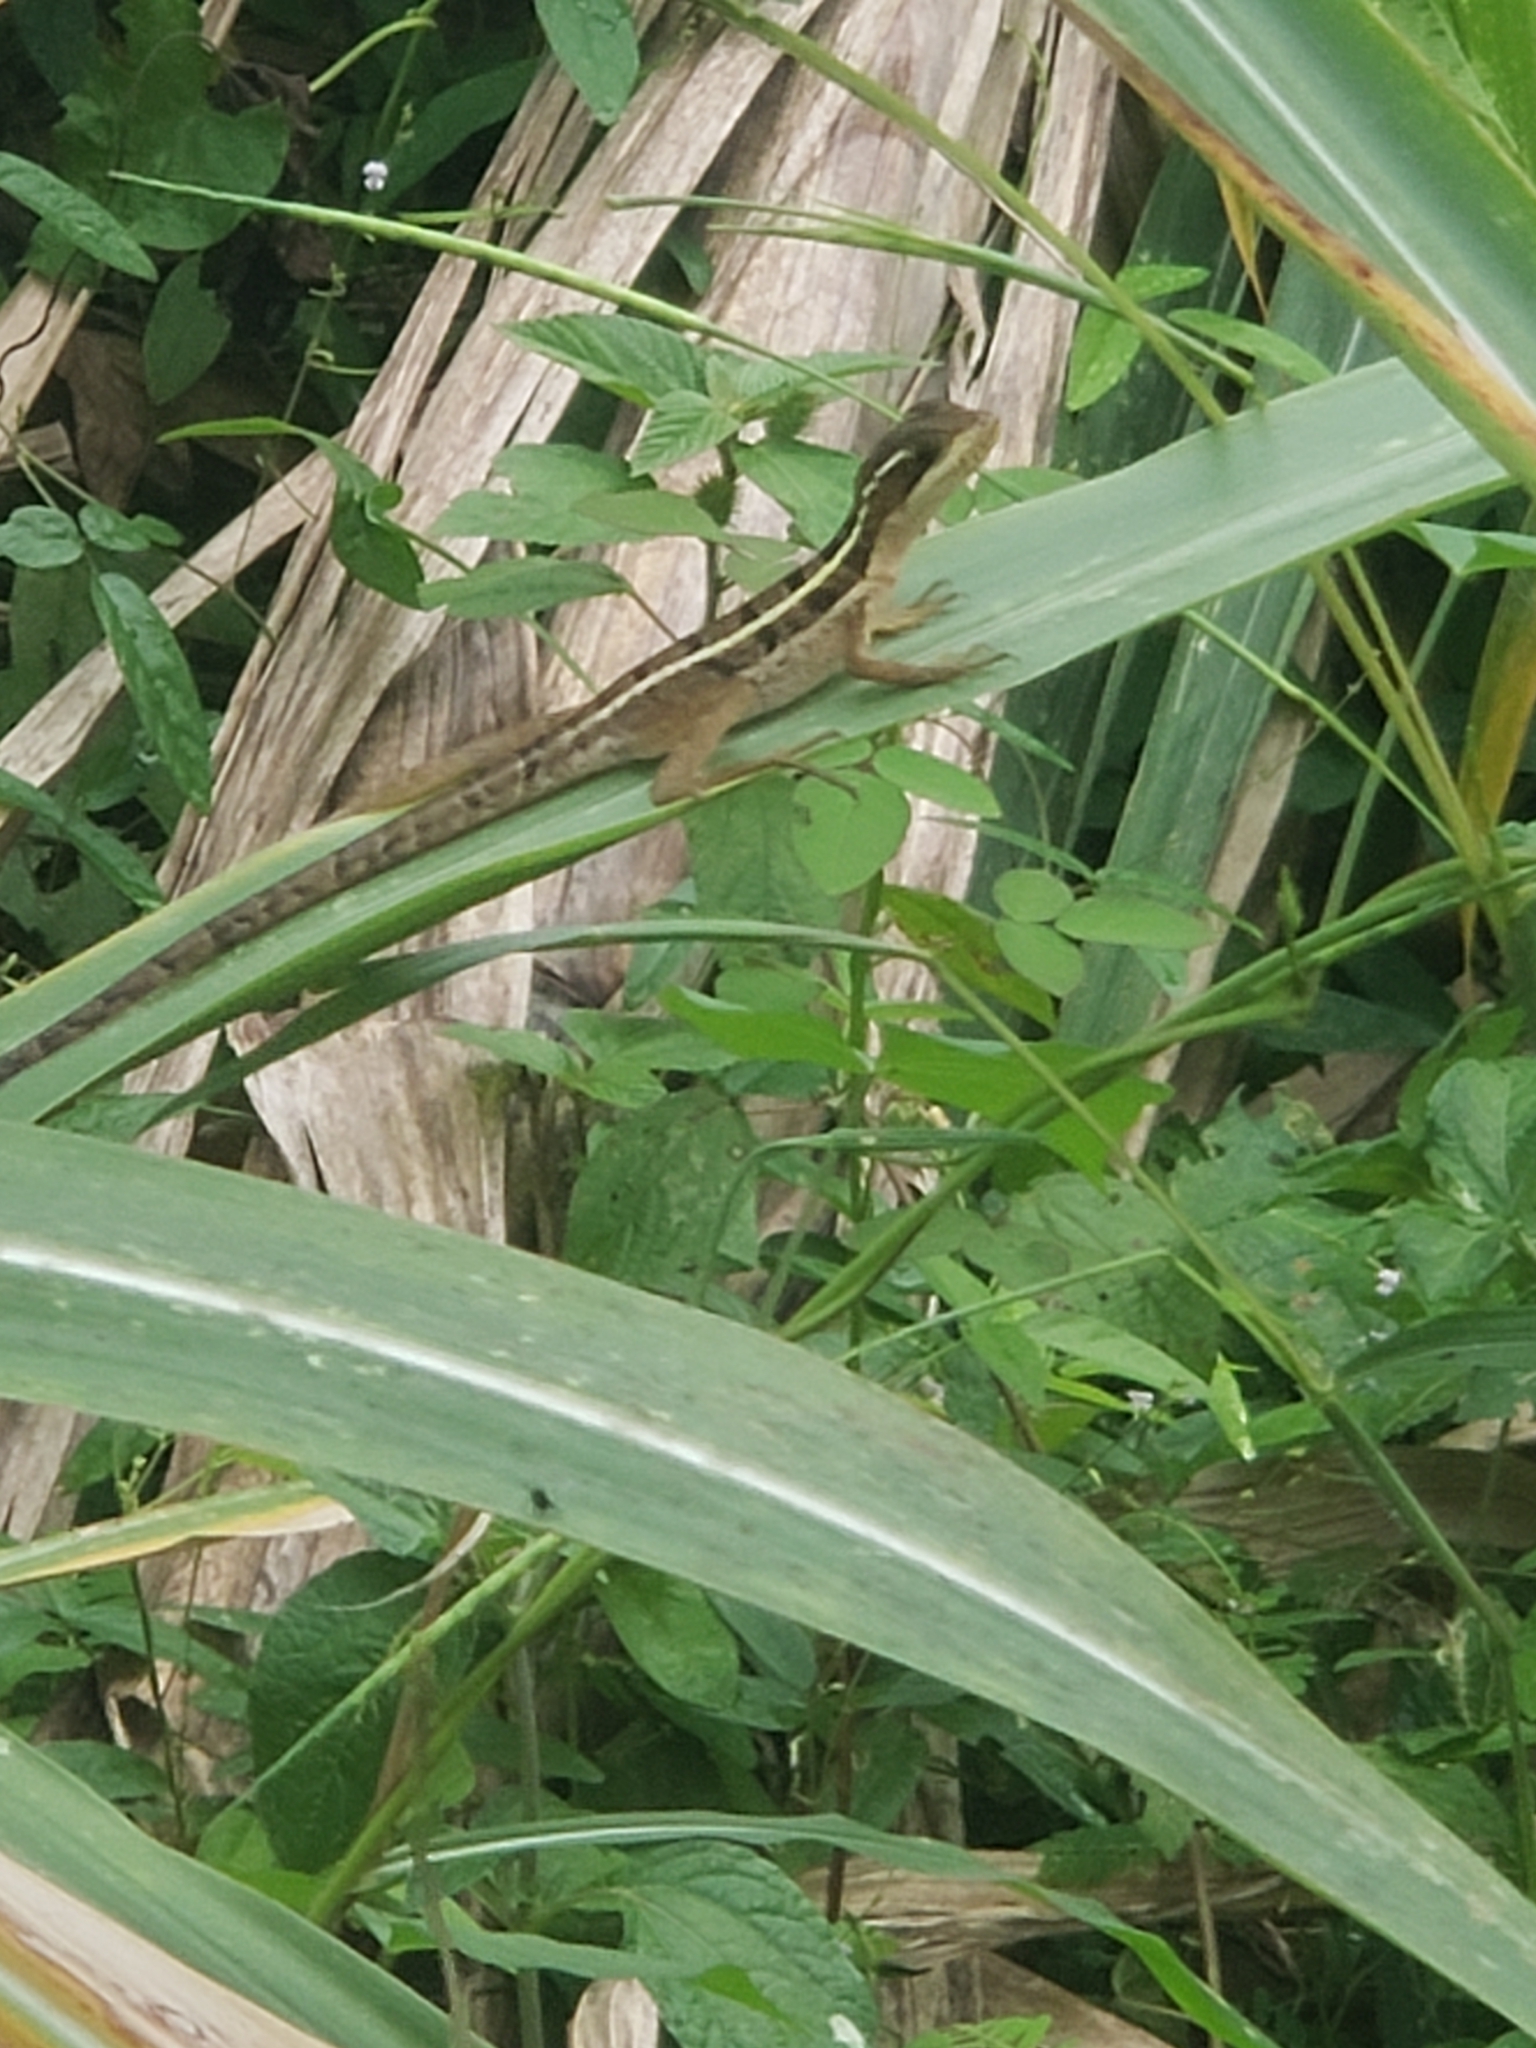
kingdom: Animalia
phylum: Chordata
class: Squamata
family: Corytophanidae
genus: Basiliscus
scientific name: Basiliscus vittatus
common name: Brown basilisk
